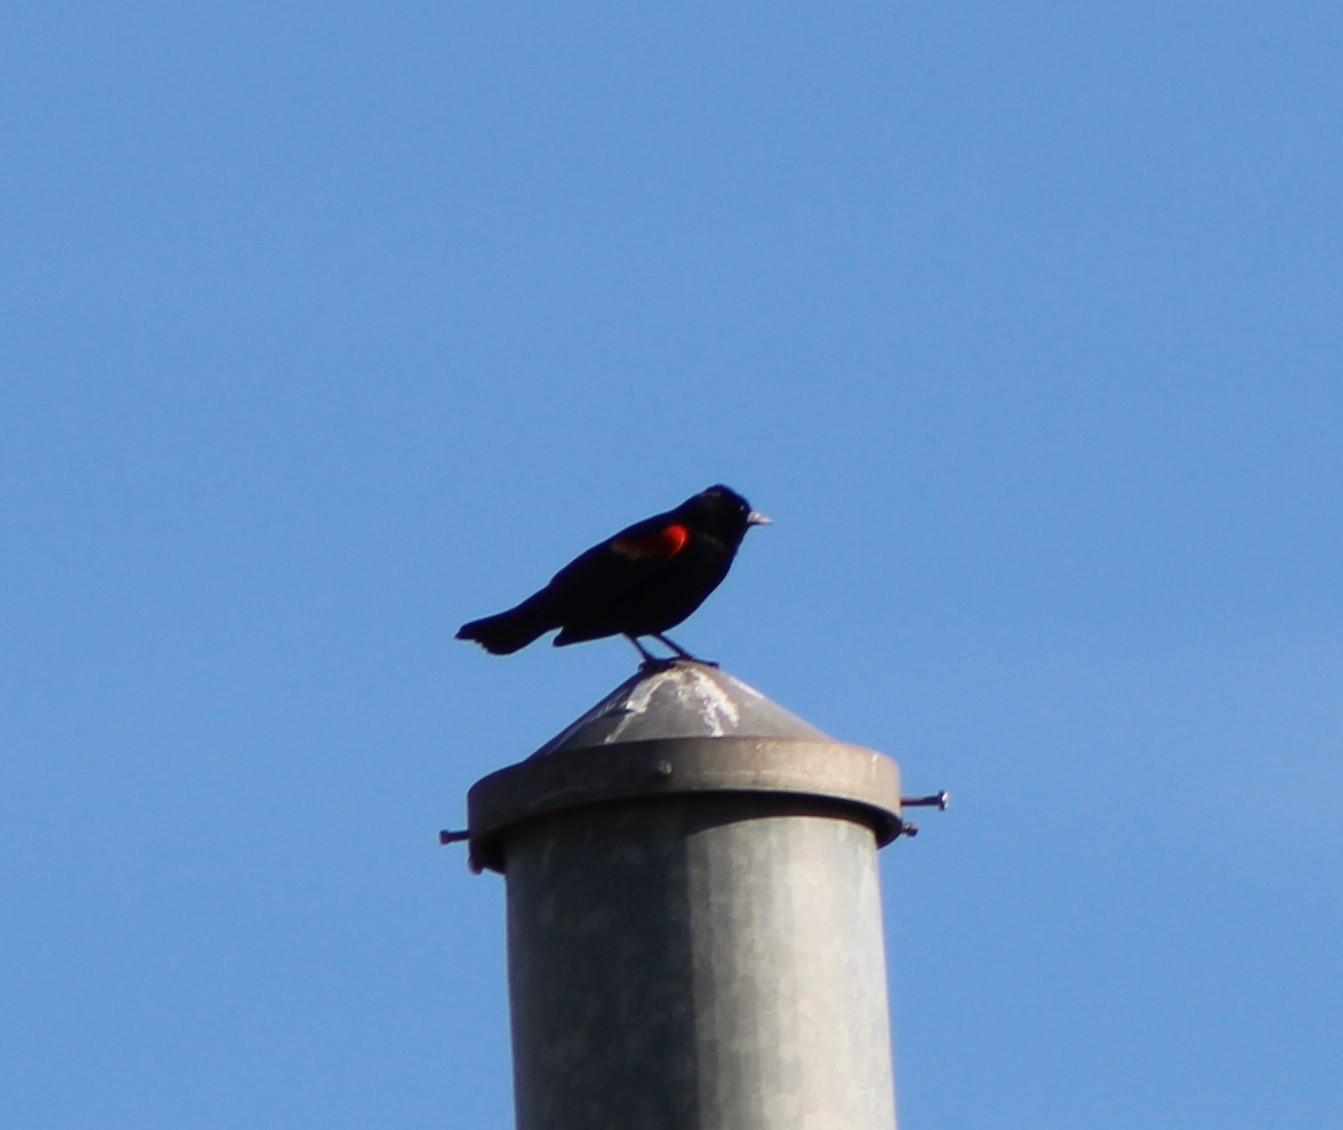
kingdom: Animalia
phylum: Chordata
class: Aves
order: Passeriformes
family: Icteridae
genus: Agelaius
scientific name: Agelaius phoeniceus
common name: Red-winged blackbird
